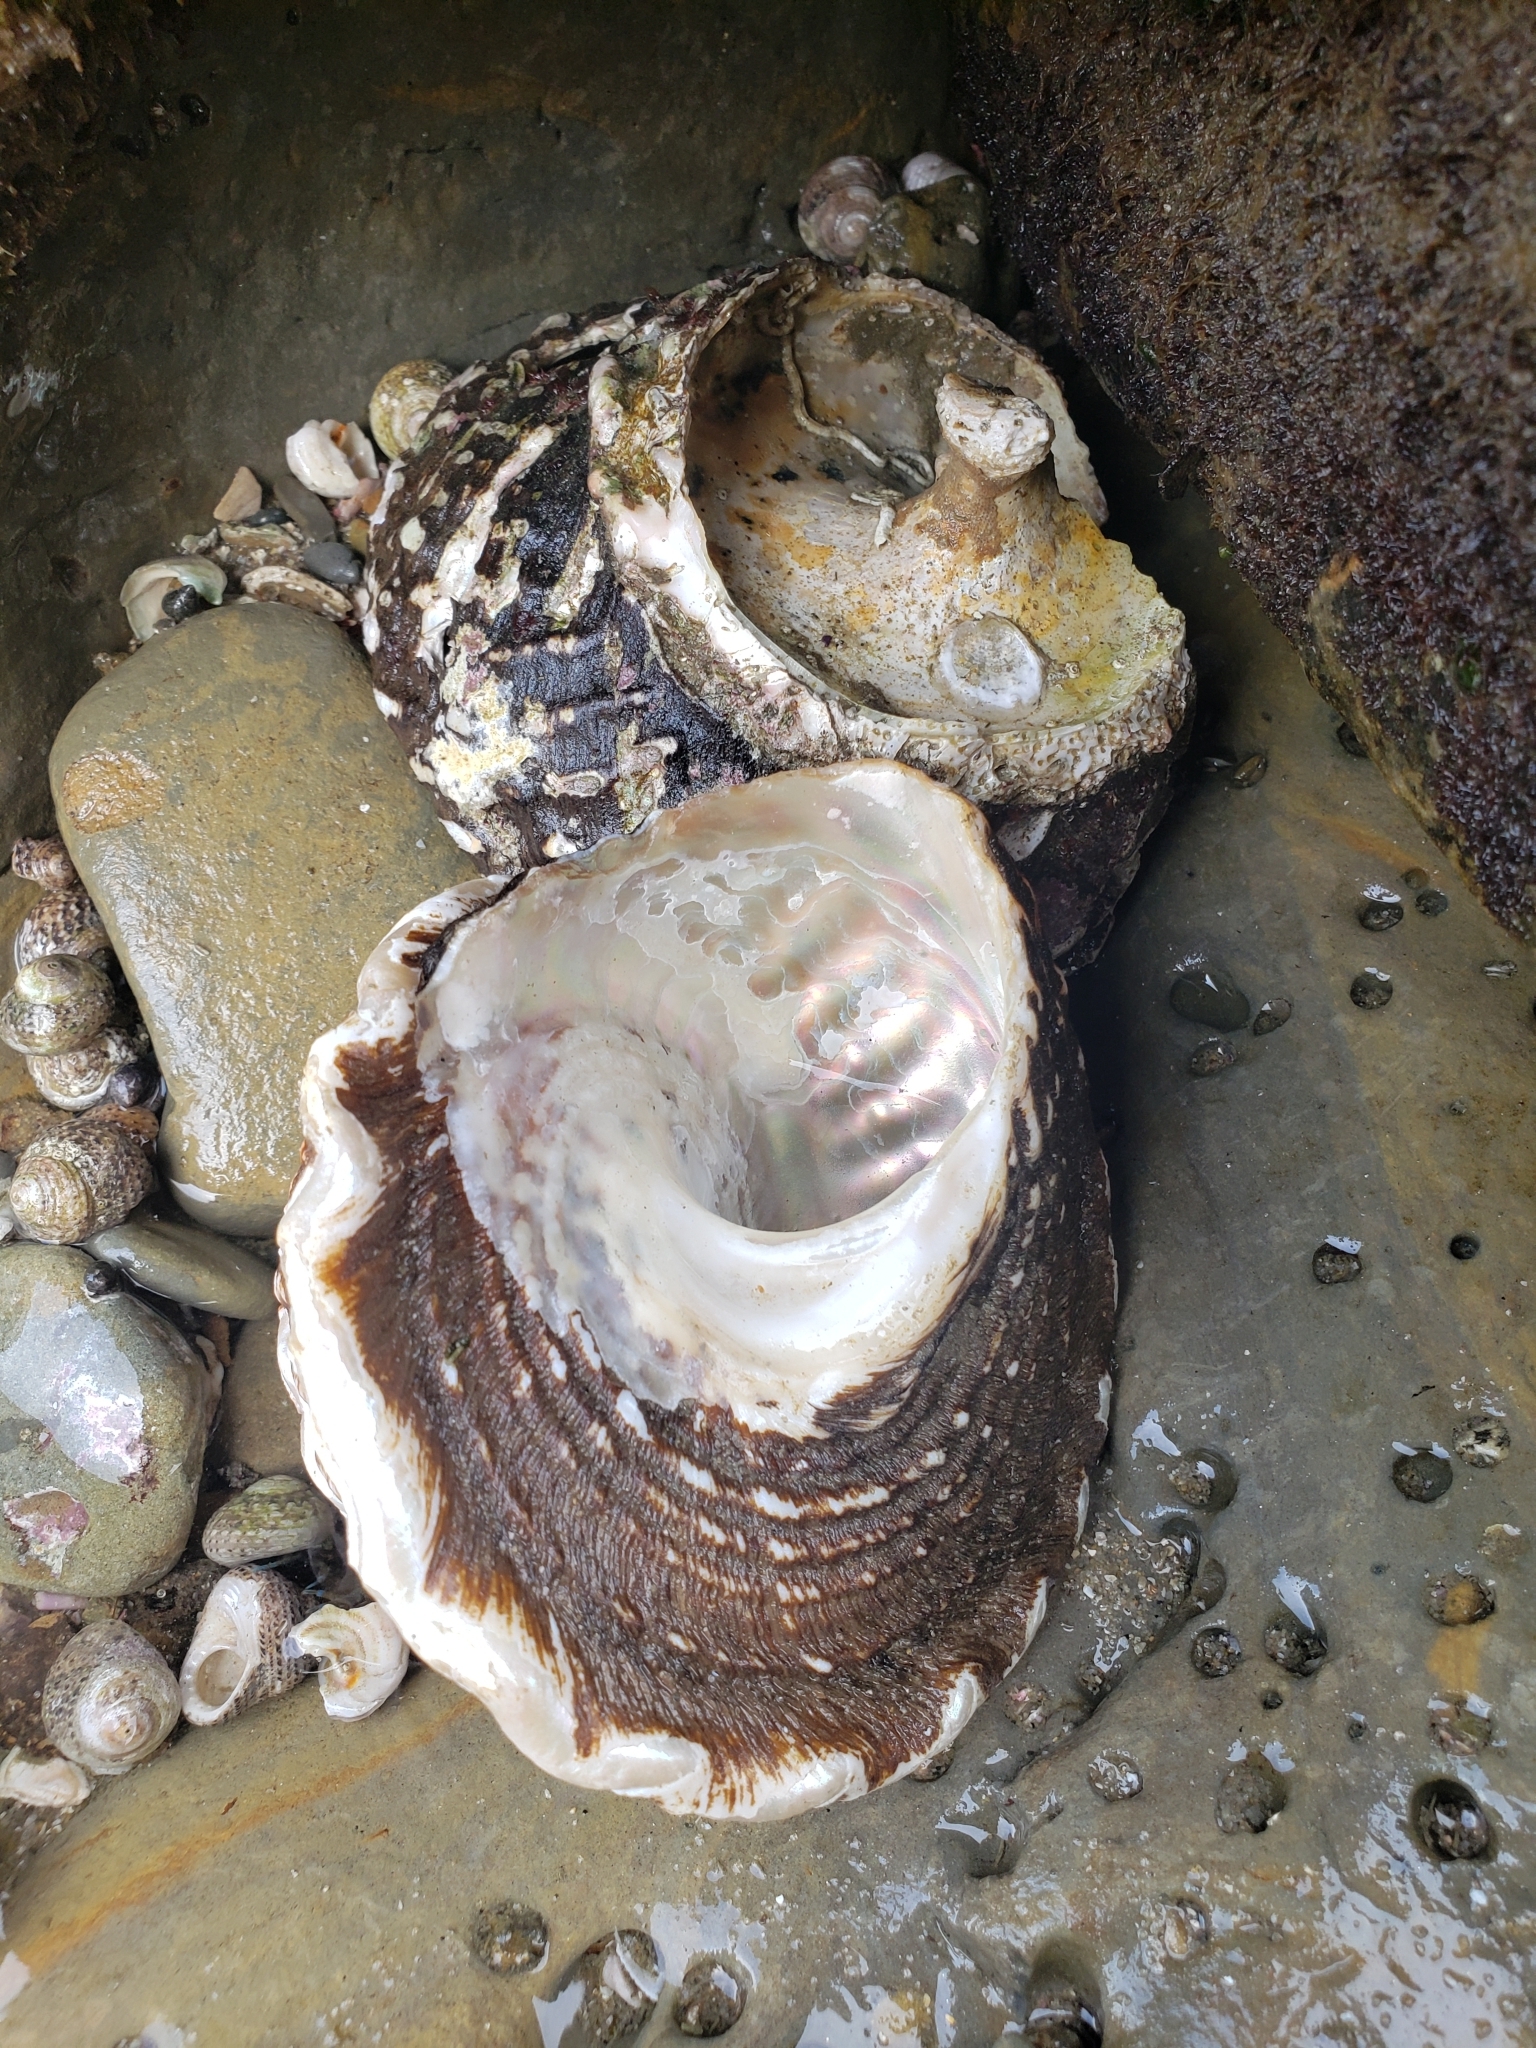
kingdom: Animalia
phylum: Mollusca
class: Gastropoda
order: Trochida
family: Turbinidae
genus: Megastraea
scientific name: Megastraea undosa
